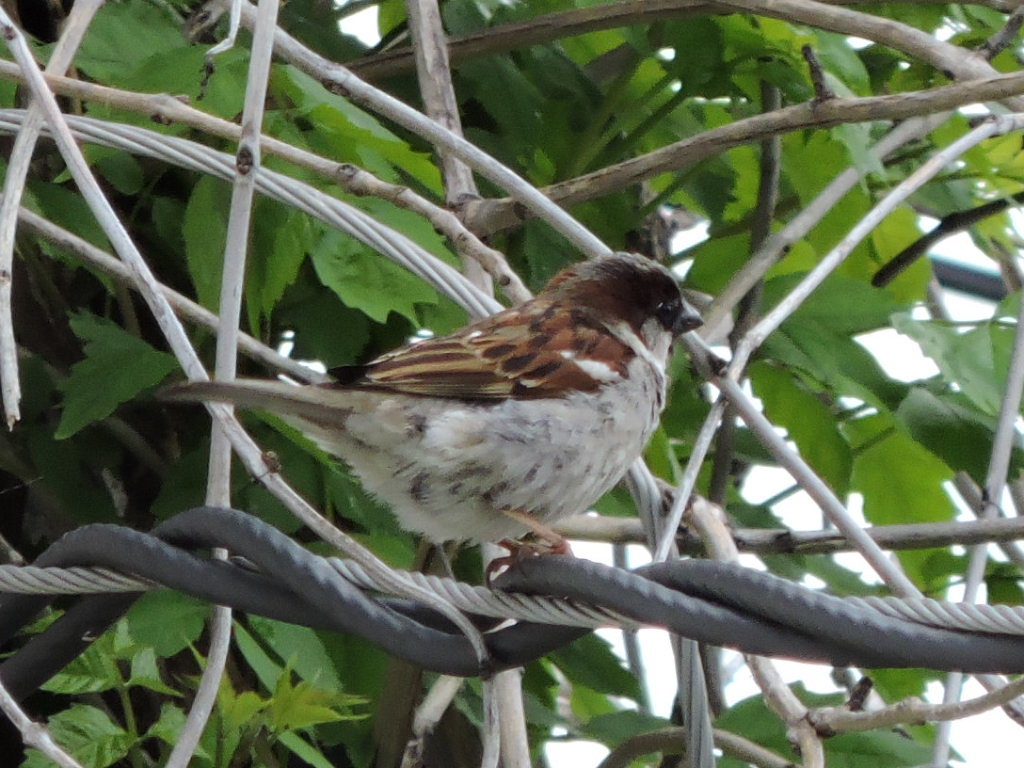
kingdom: Animalia
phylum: Chordata
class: Aves
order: Passeriformes
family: Passeridae
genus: Passer
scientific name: Passer domesticus
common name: House sparrow
